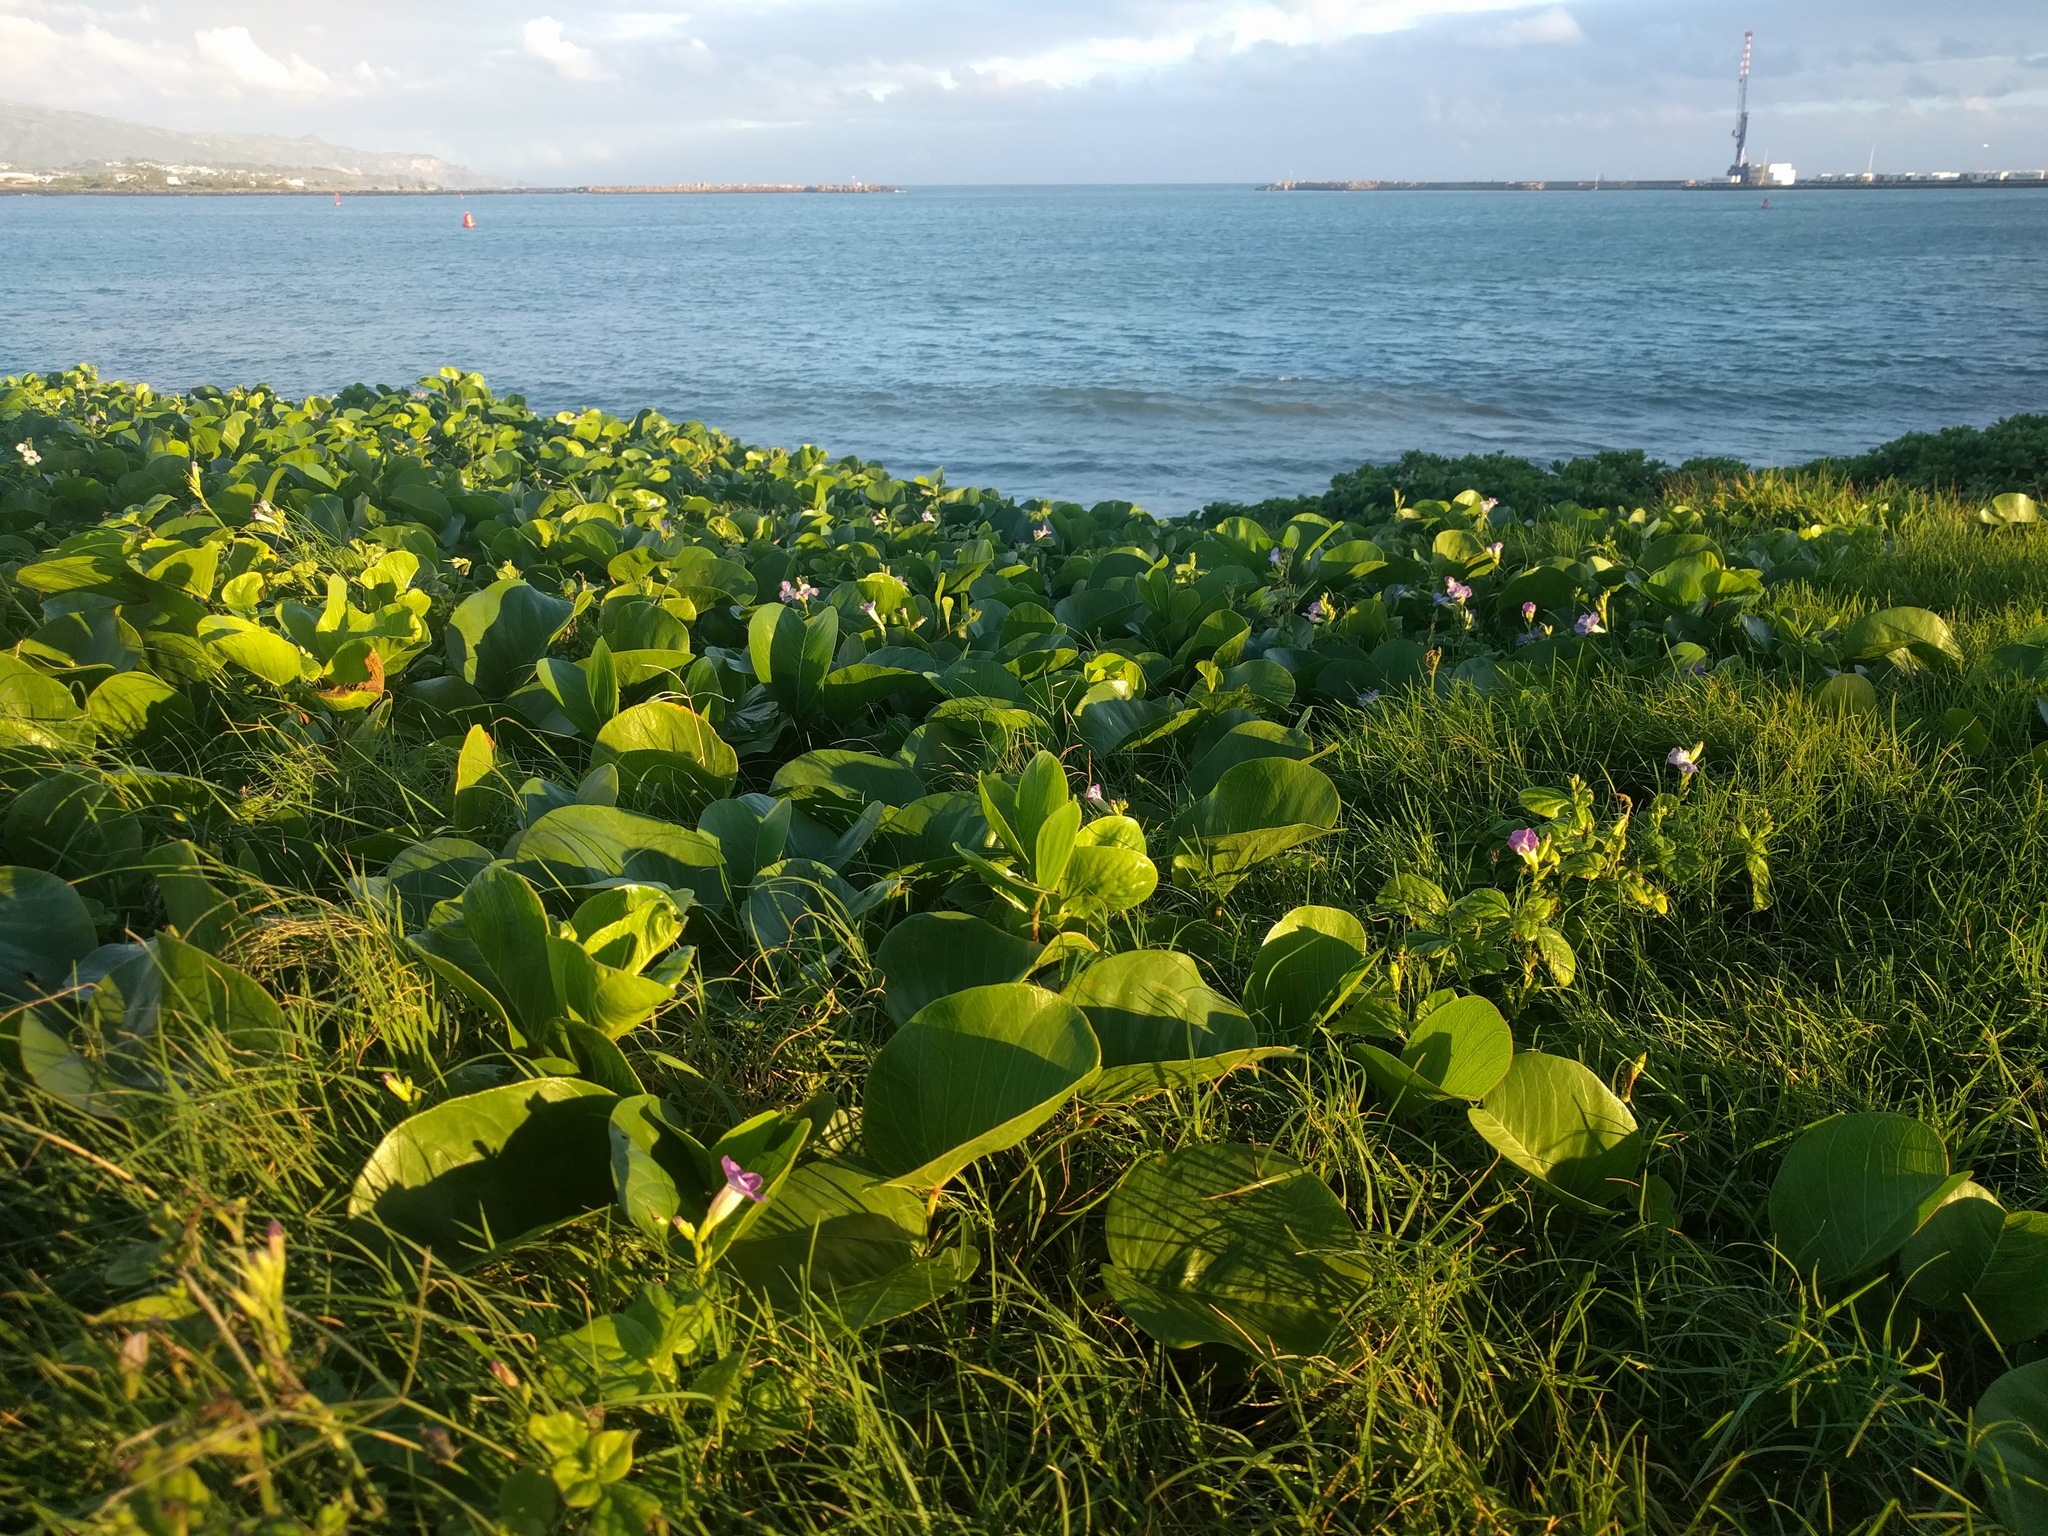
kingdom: Plantae
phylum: Tracheophyta
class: Magnoliopsida
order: Solanales
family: Convolvulaceae
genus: Ipomoea
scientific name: Ipomoea pes-caprae
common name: Beach morning glory
